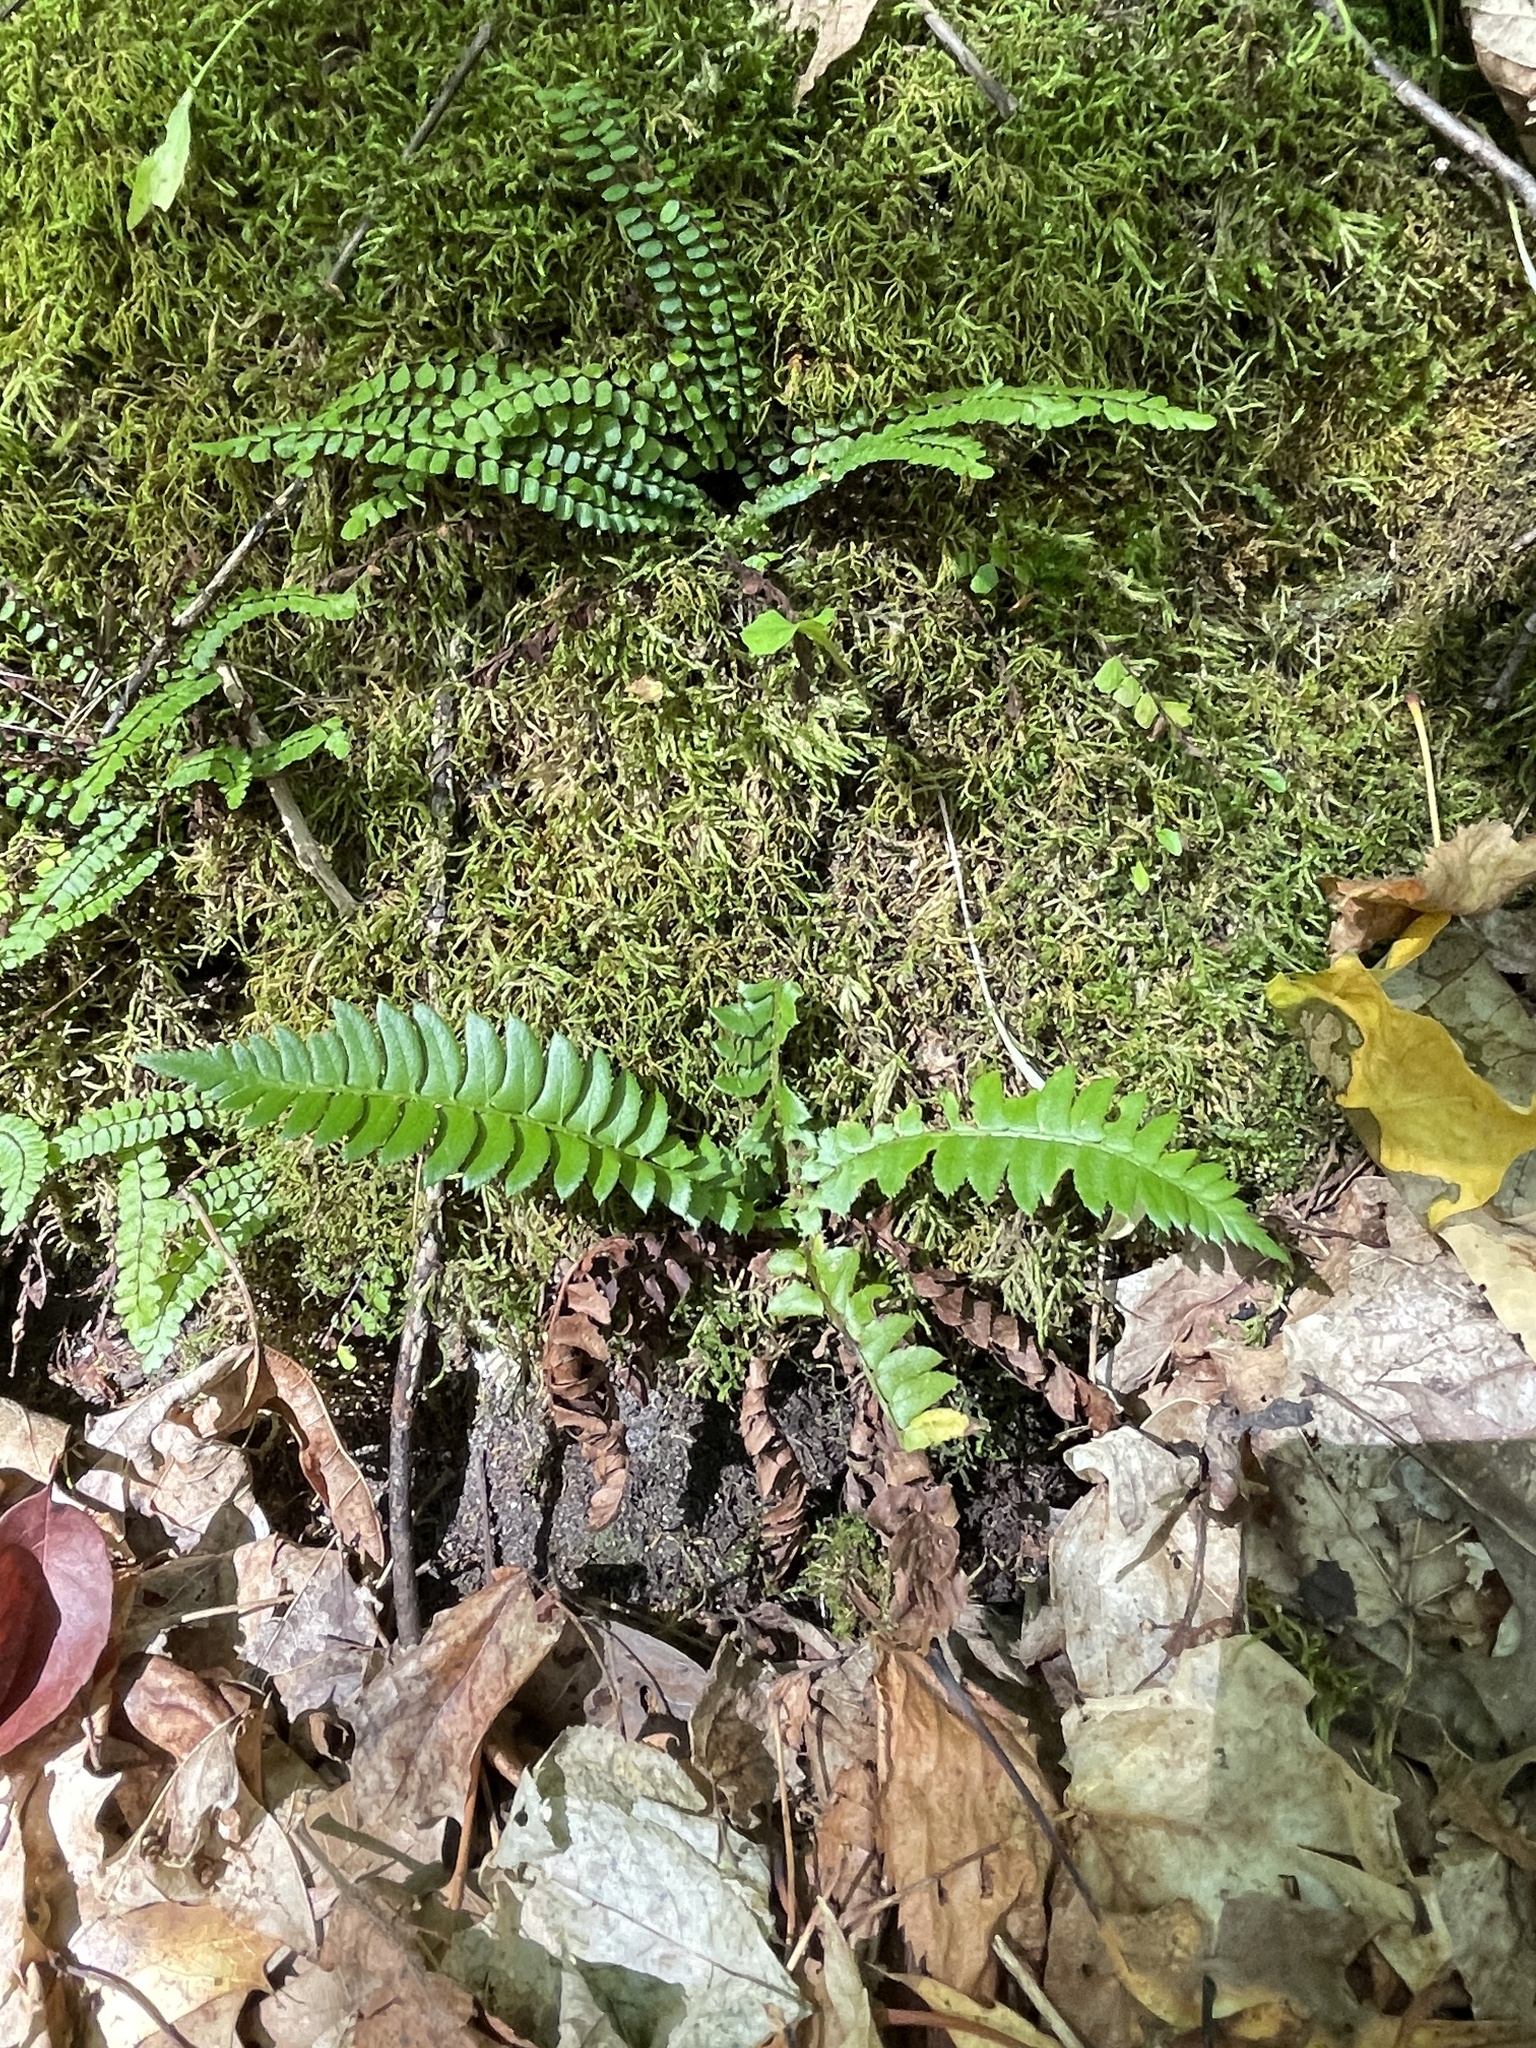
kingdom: Plantae
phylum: Tracheophyta
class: Polypodiopsida
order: Polypodiales
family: Dryopteridaceae
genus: Polystichum
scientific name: Polystichum lonchitis
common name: Holly fern
